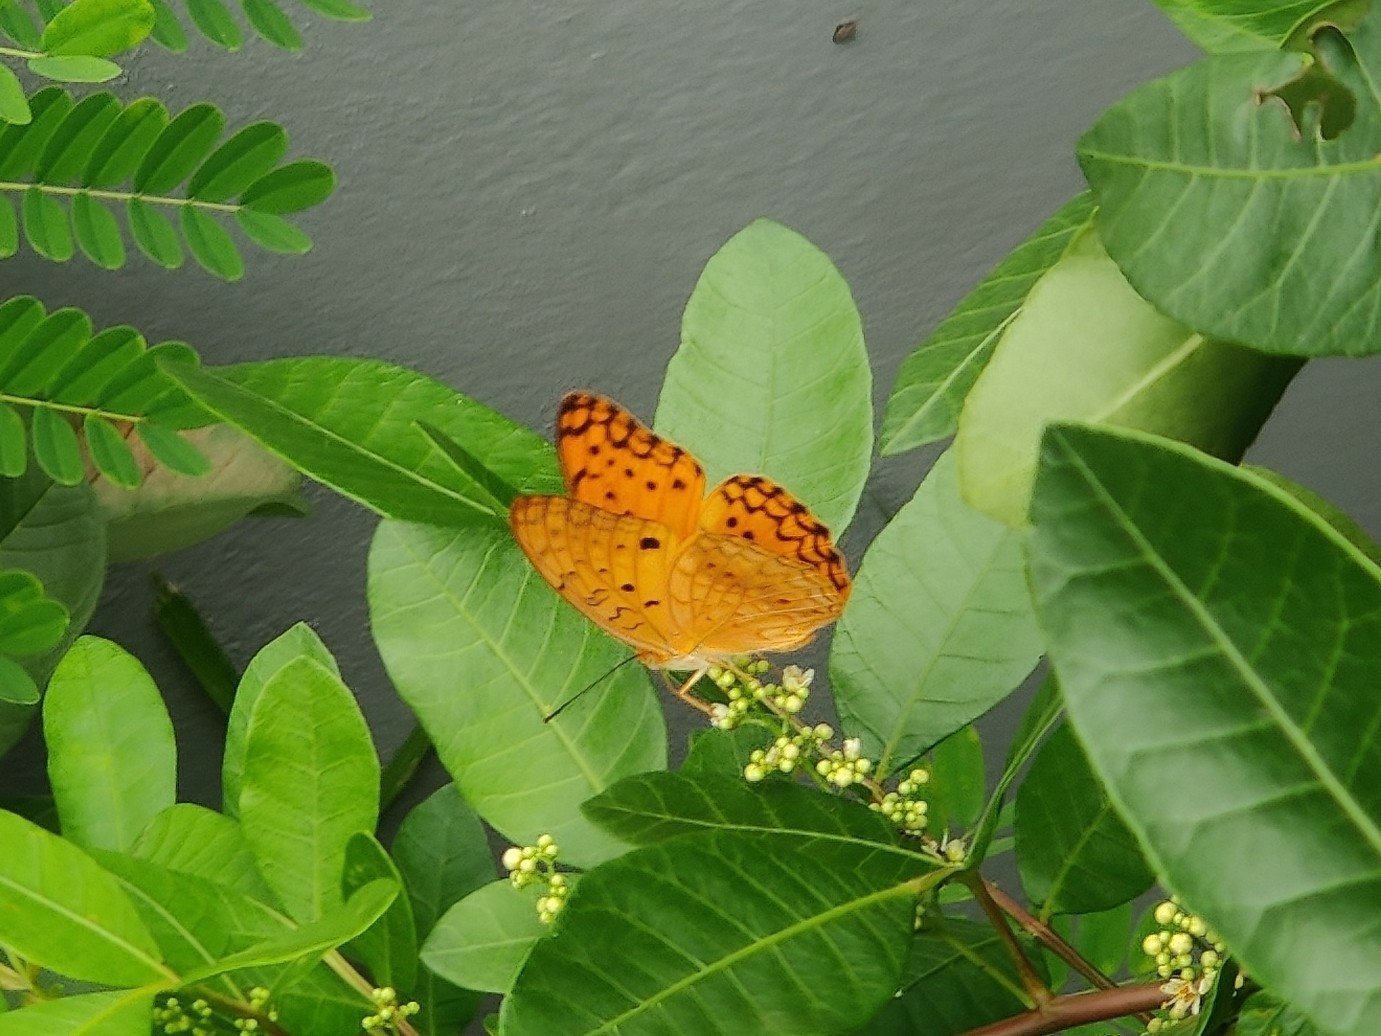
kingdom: Animalia
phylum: Arthropoda
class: Insecta
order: Lepidoptera
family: Nymphalidae
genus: Phalanta
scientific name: Phalanta phalantha
